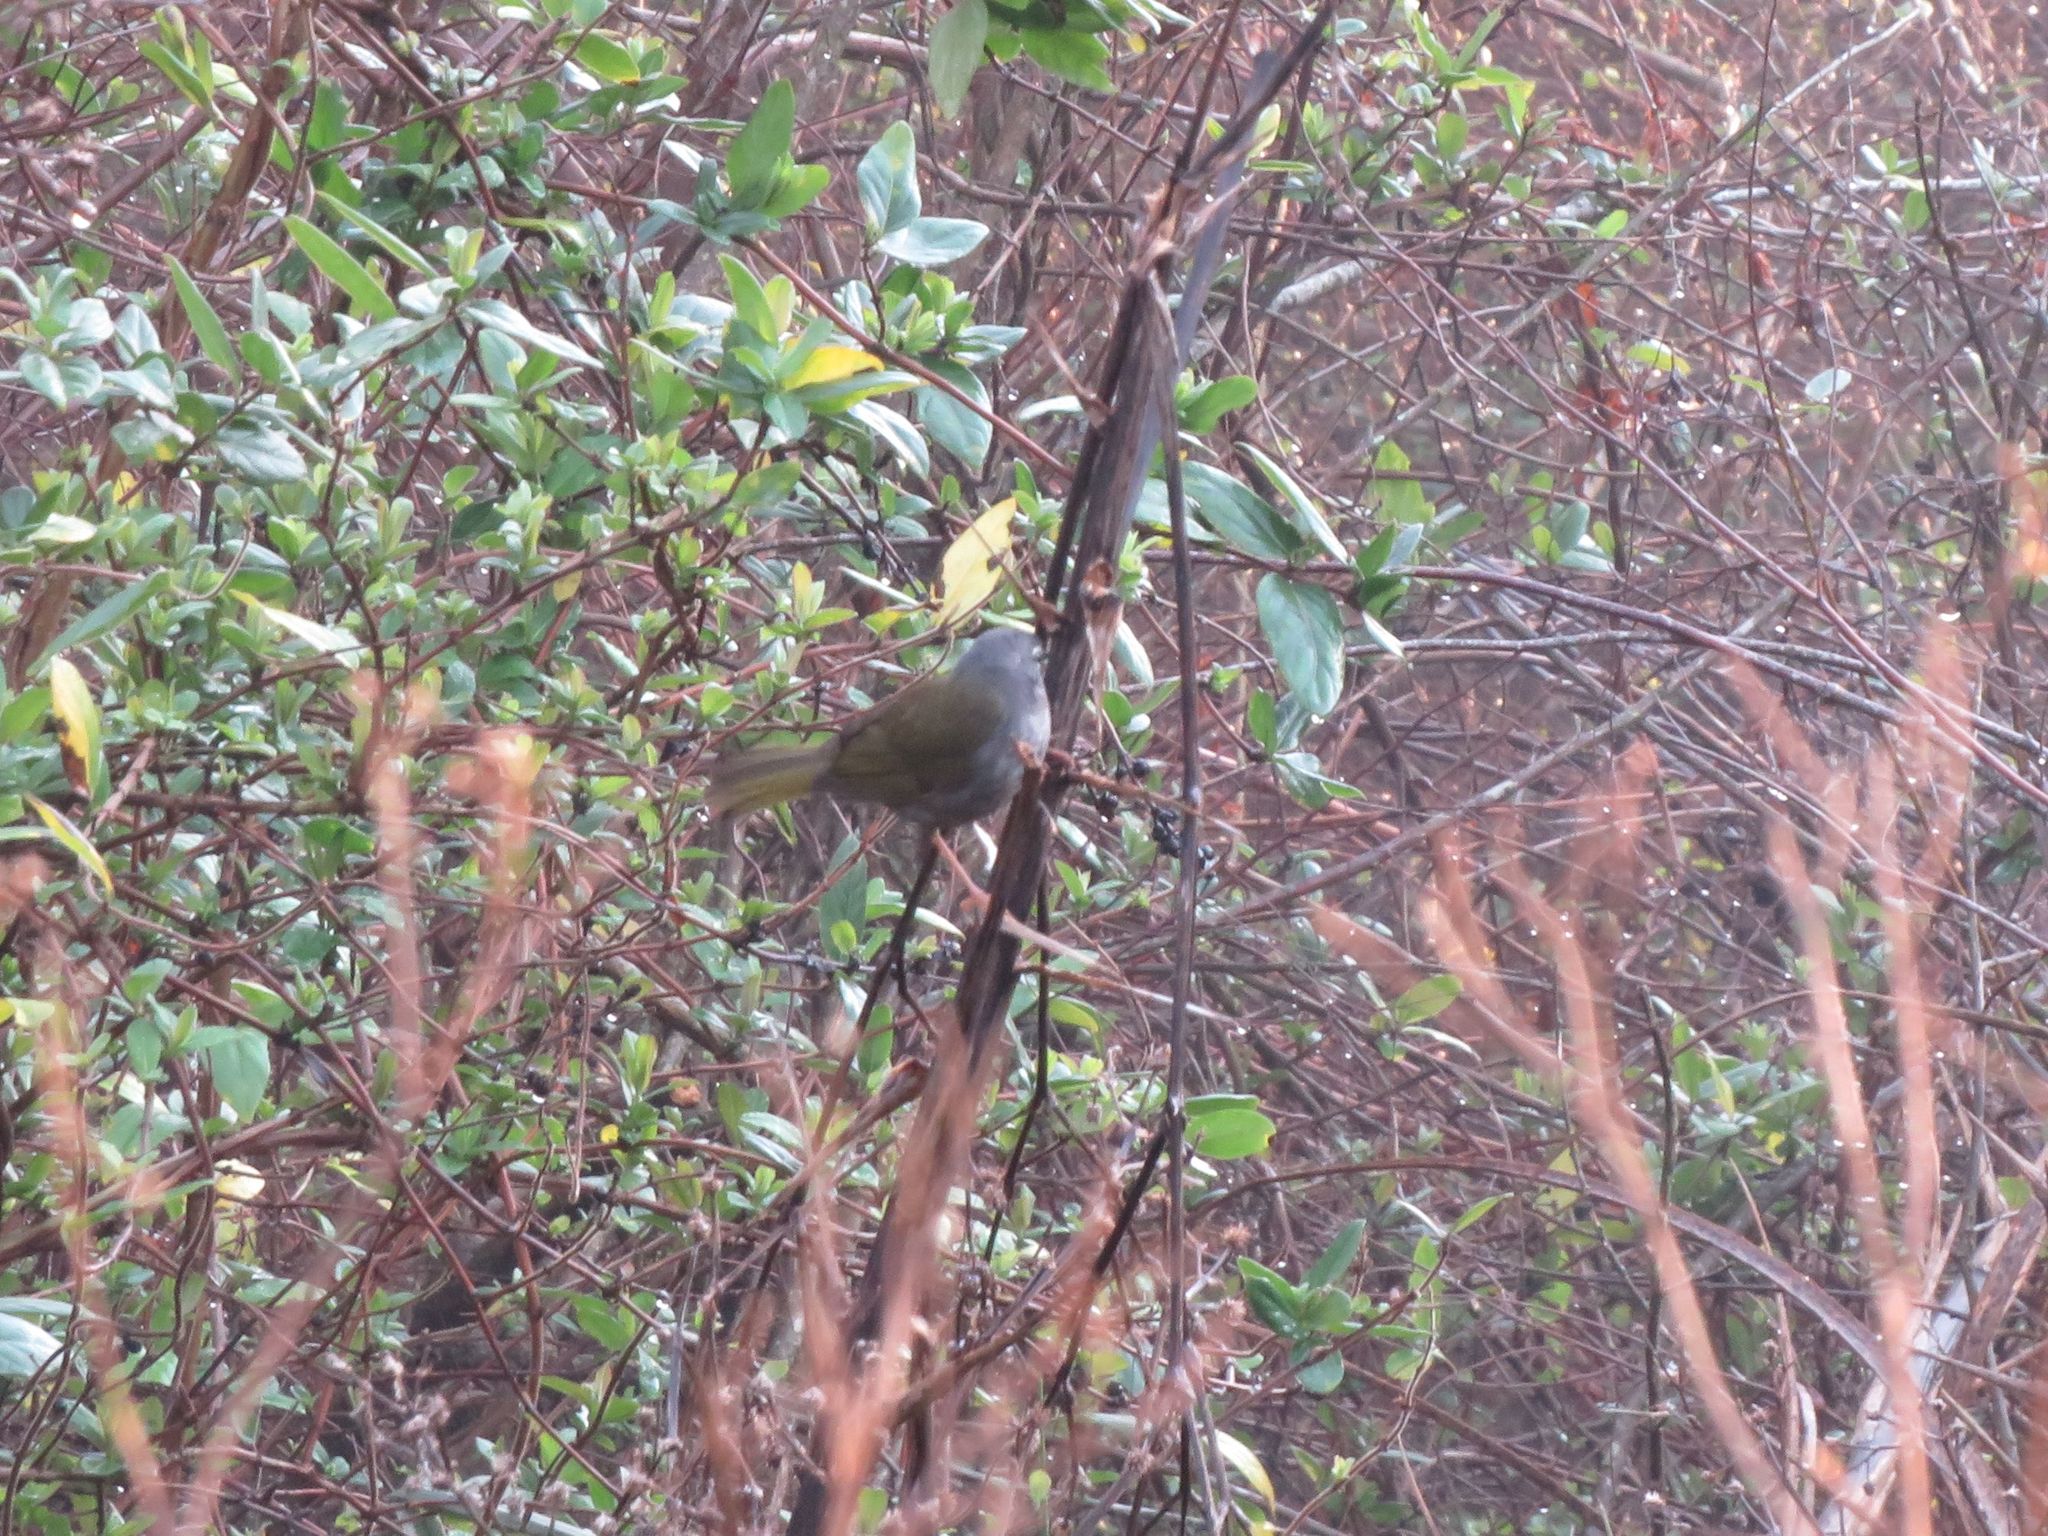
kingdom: Animalia
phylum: Chordata
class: Aves
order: Passeriformes
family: Parulidae
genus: Myiothlypis
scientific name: Myiothlypis leucoblephara
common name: White-rimmed warbler
